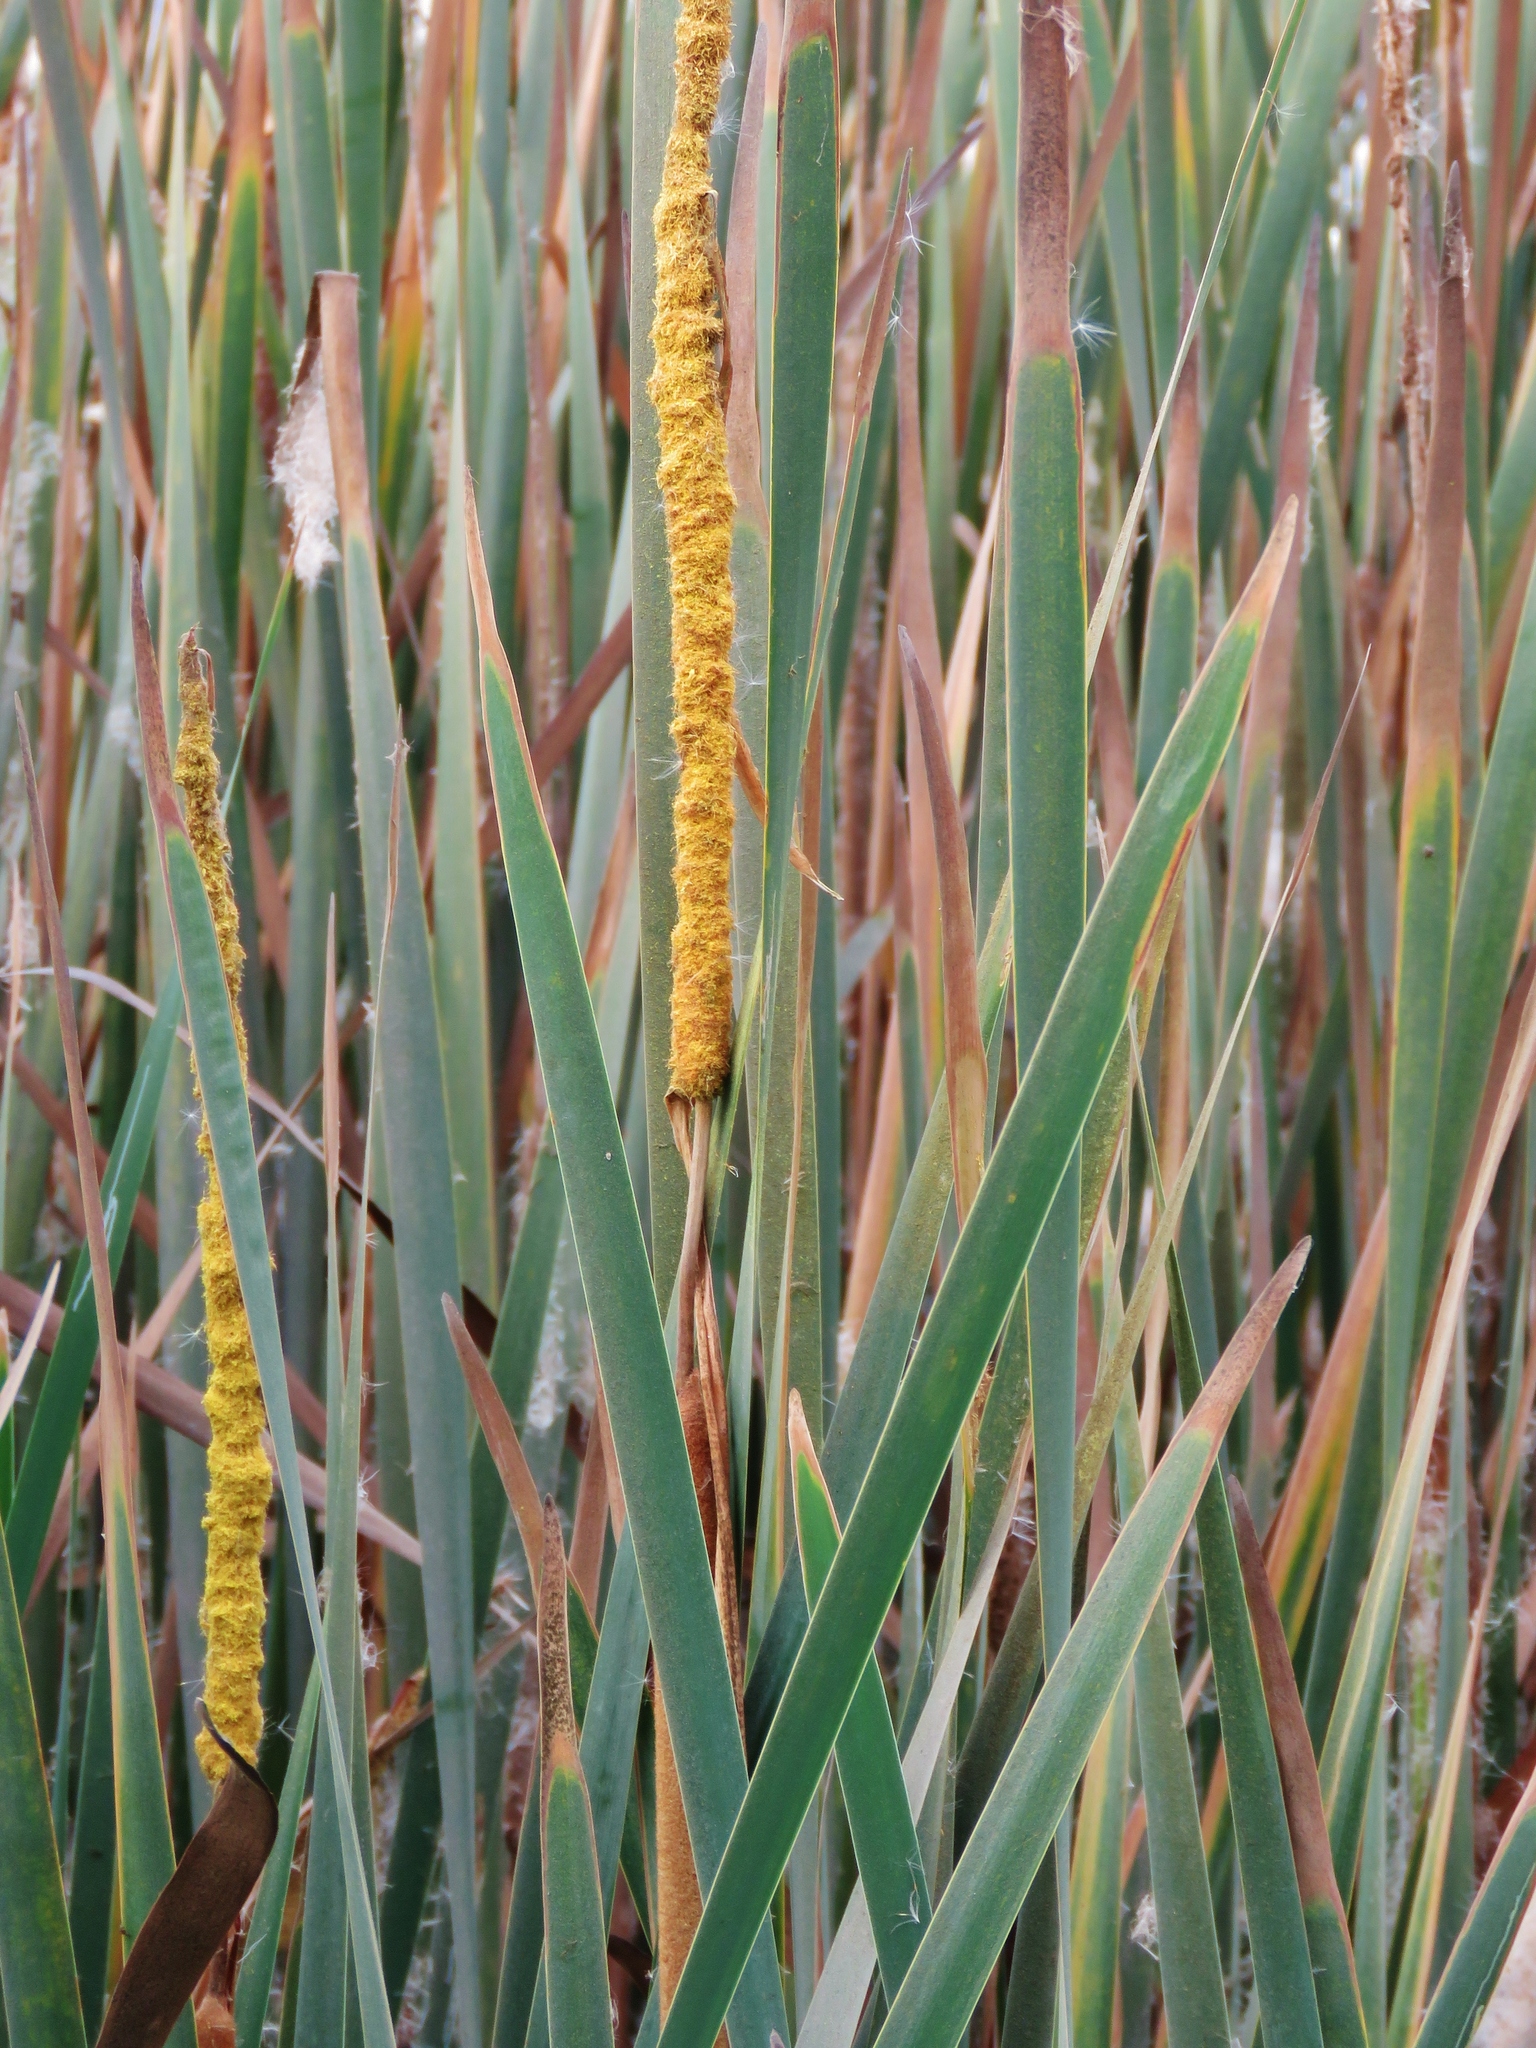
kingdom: Plantae
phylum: Tracheophyta
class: Liliopsida
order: Poales
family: Typhaceae
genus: Typha
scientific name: Typha domingensis
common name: Southern cattail
